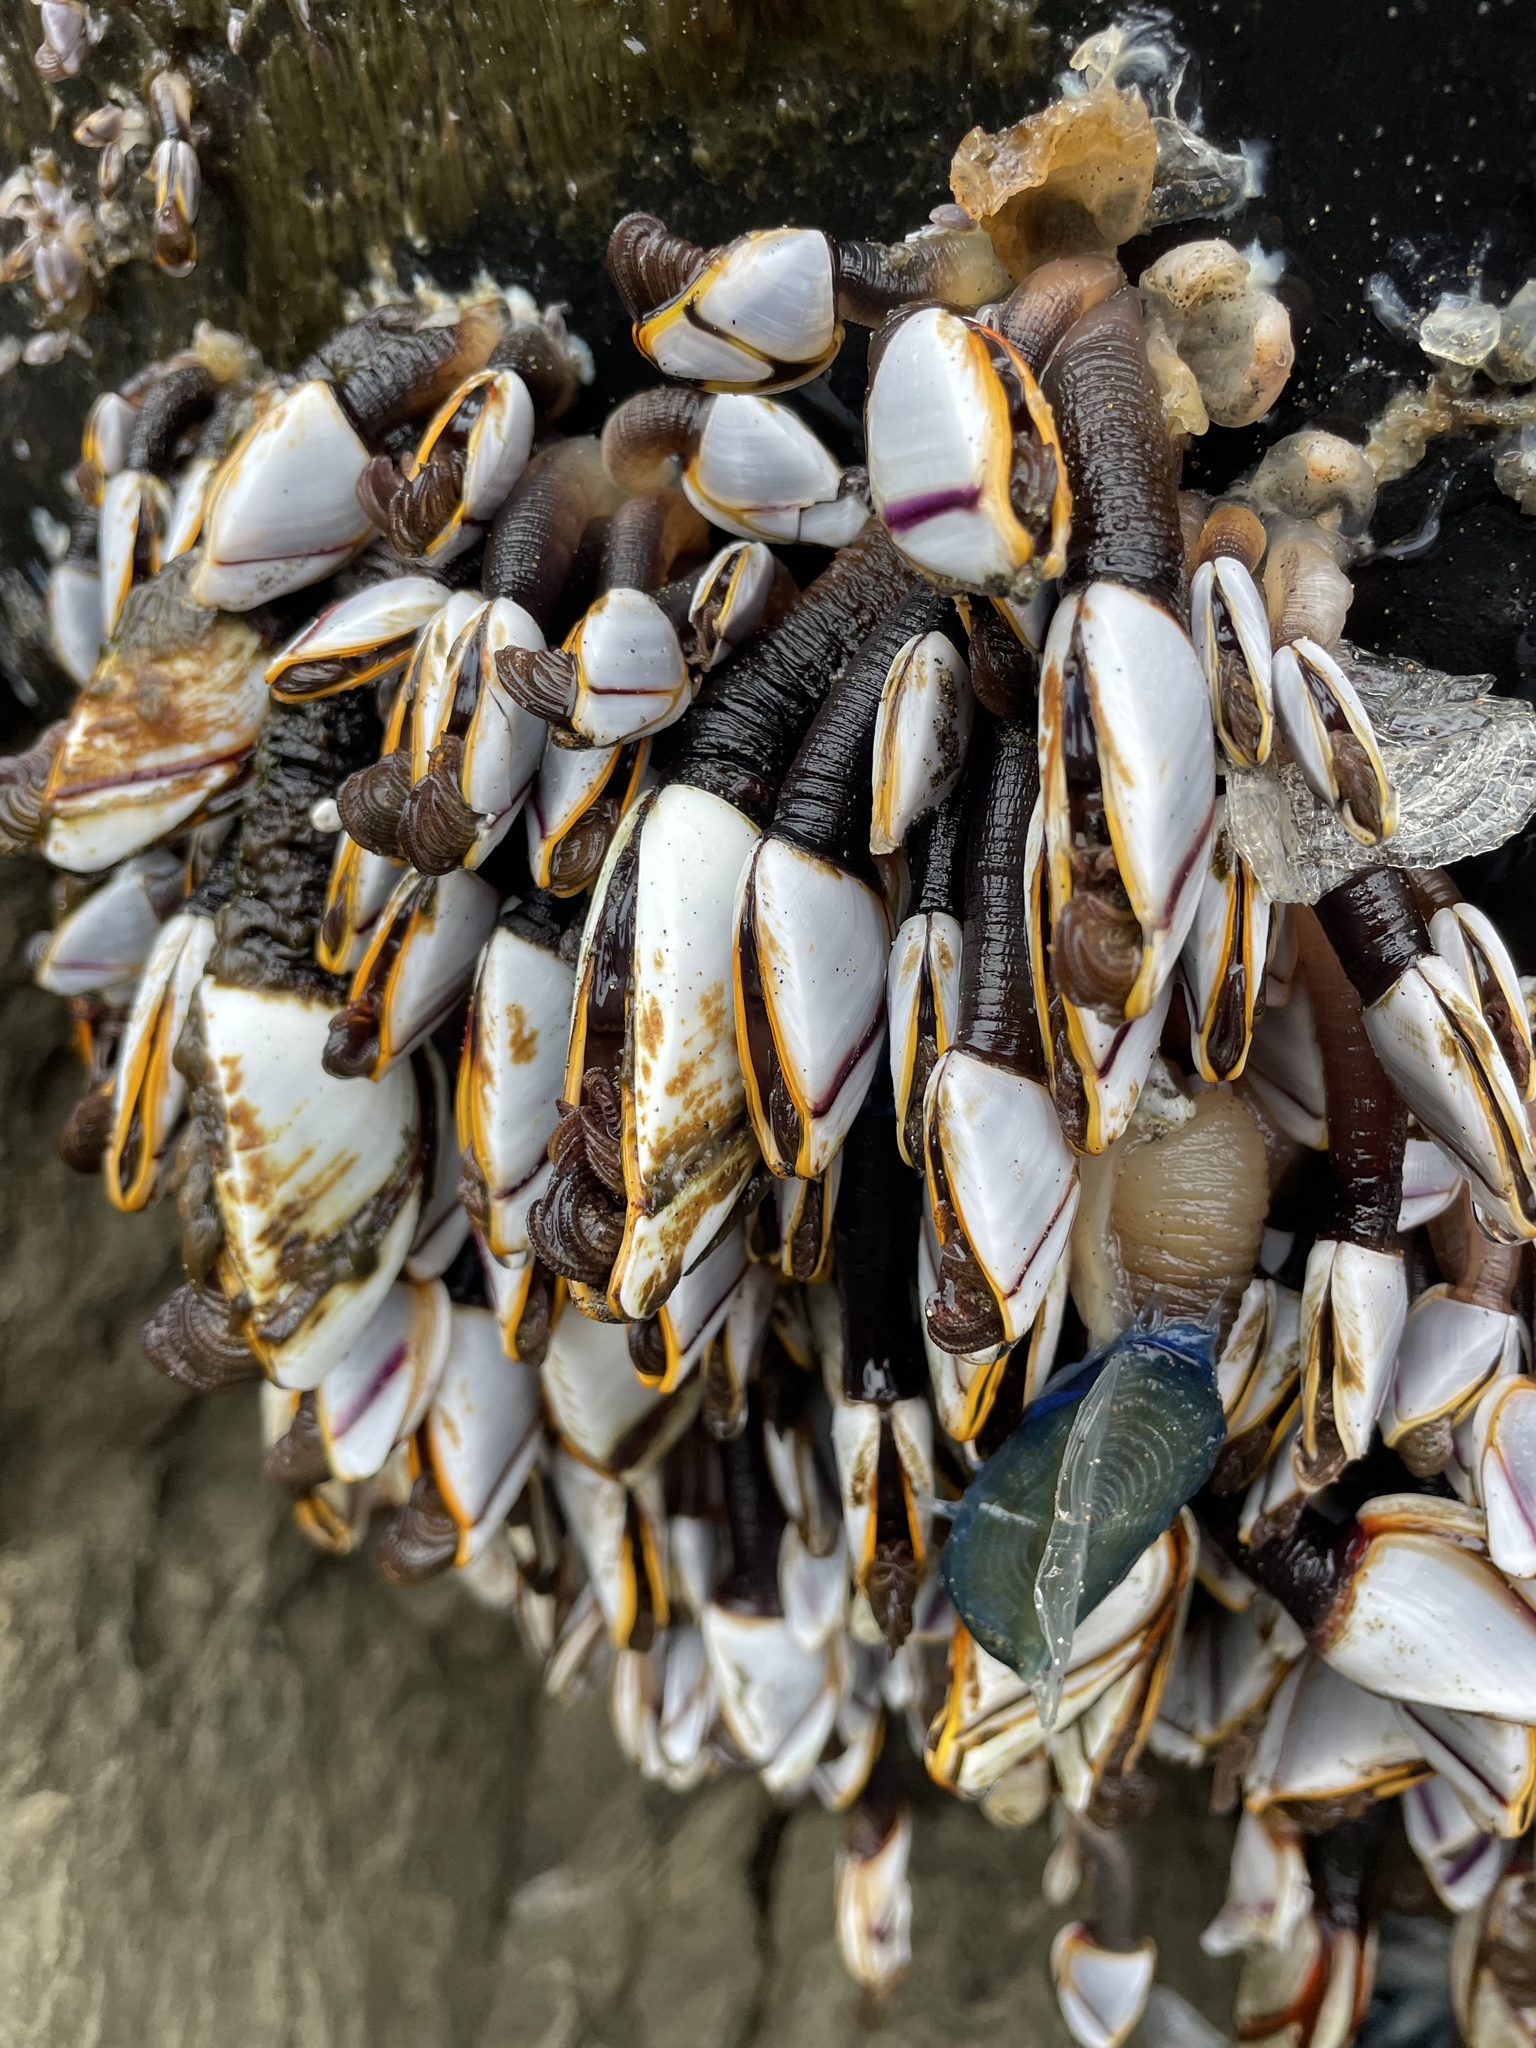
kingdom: Animalia
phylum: Arthropoda
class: Maxillopoda
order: Pedunculata
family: Lepadidae
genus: Lepas
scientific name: Lepas anatifera
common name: Common goose barnacle
